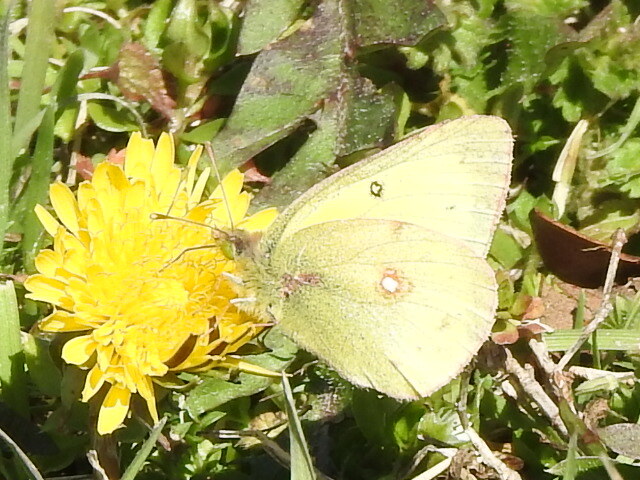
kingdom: Animalia
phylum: Arthropoda
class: Insecta
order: Lepidoptera
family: Pieridae
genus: Colias
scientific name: Colias eurytheme
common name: Alfalfa butterfly
